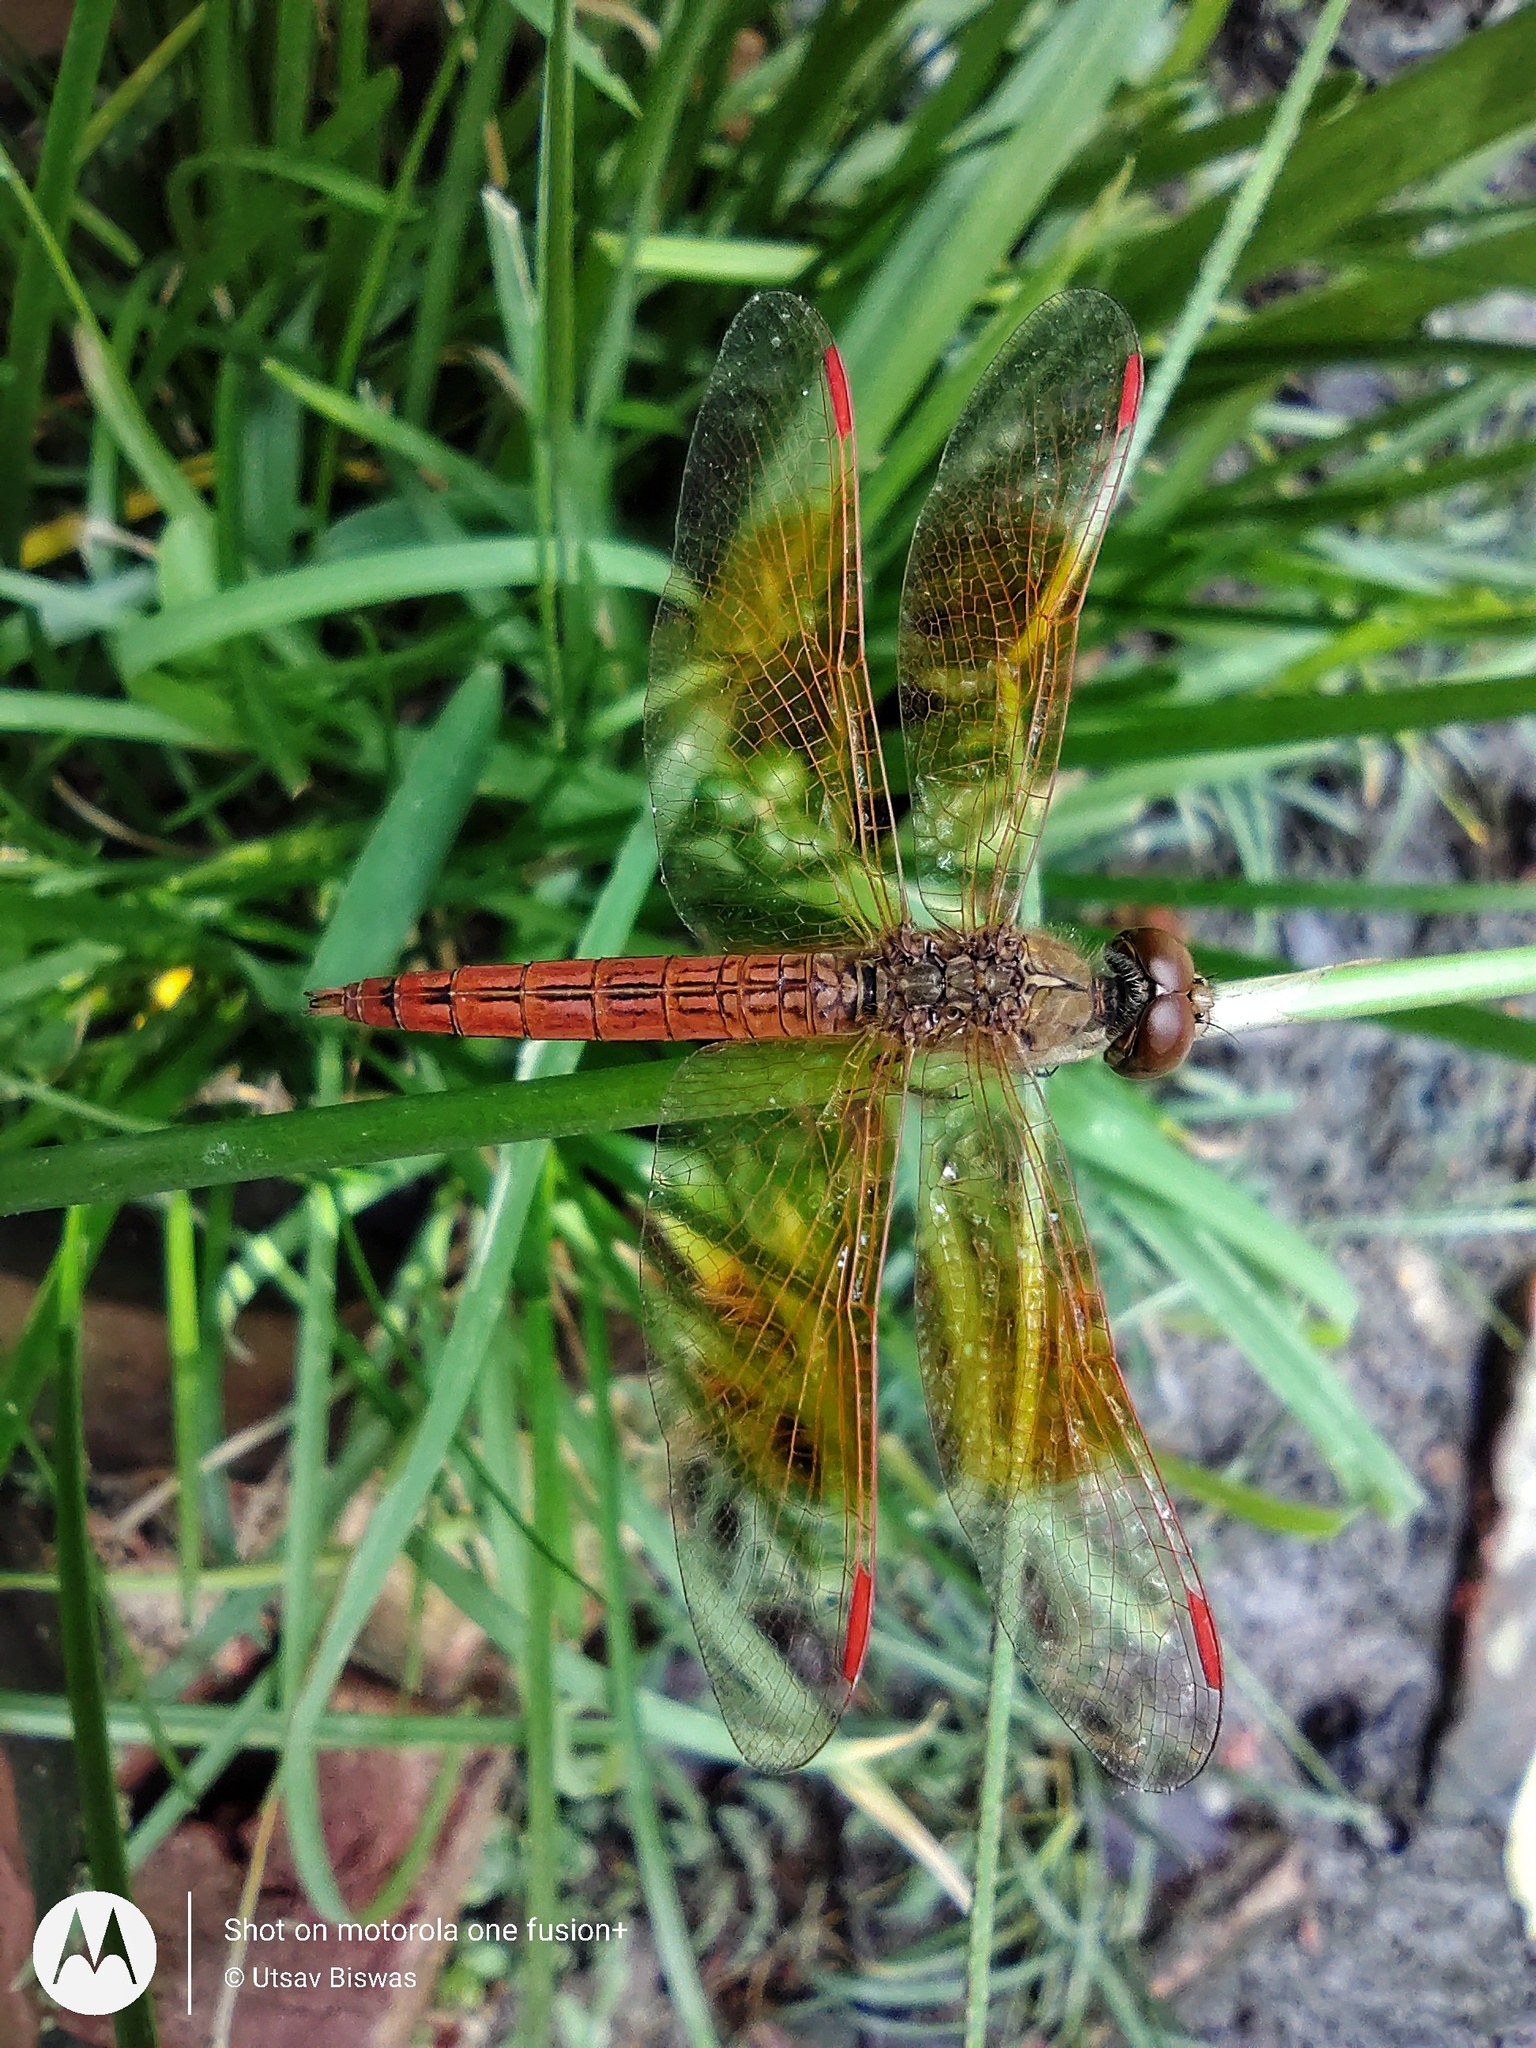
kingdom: Animalia
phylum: Arthropoda
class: Insecta
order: Odonata
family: Libellulidae
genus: Brachythemis
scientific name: Brachythemis contaminata
